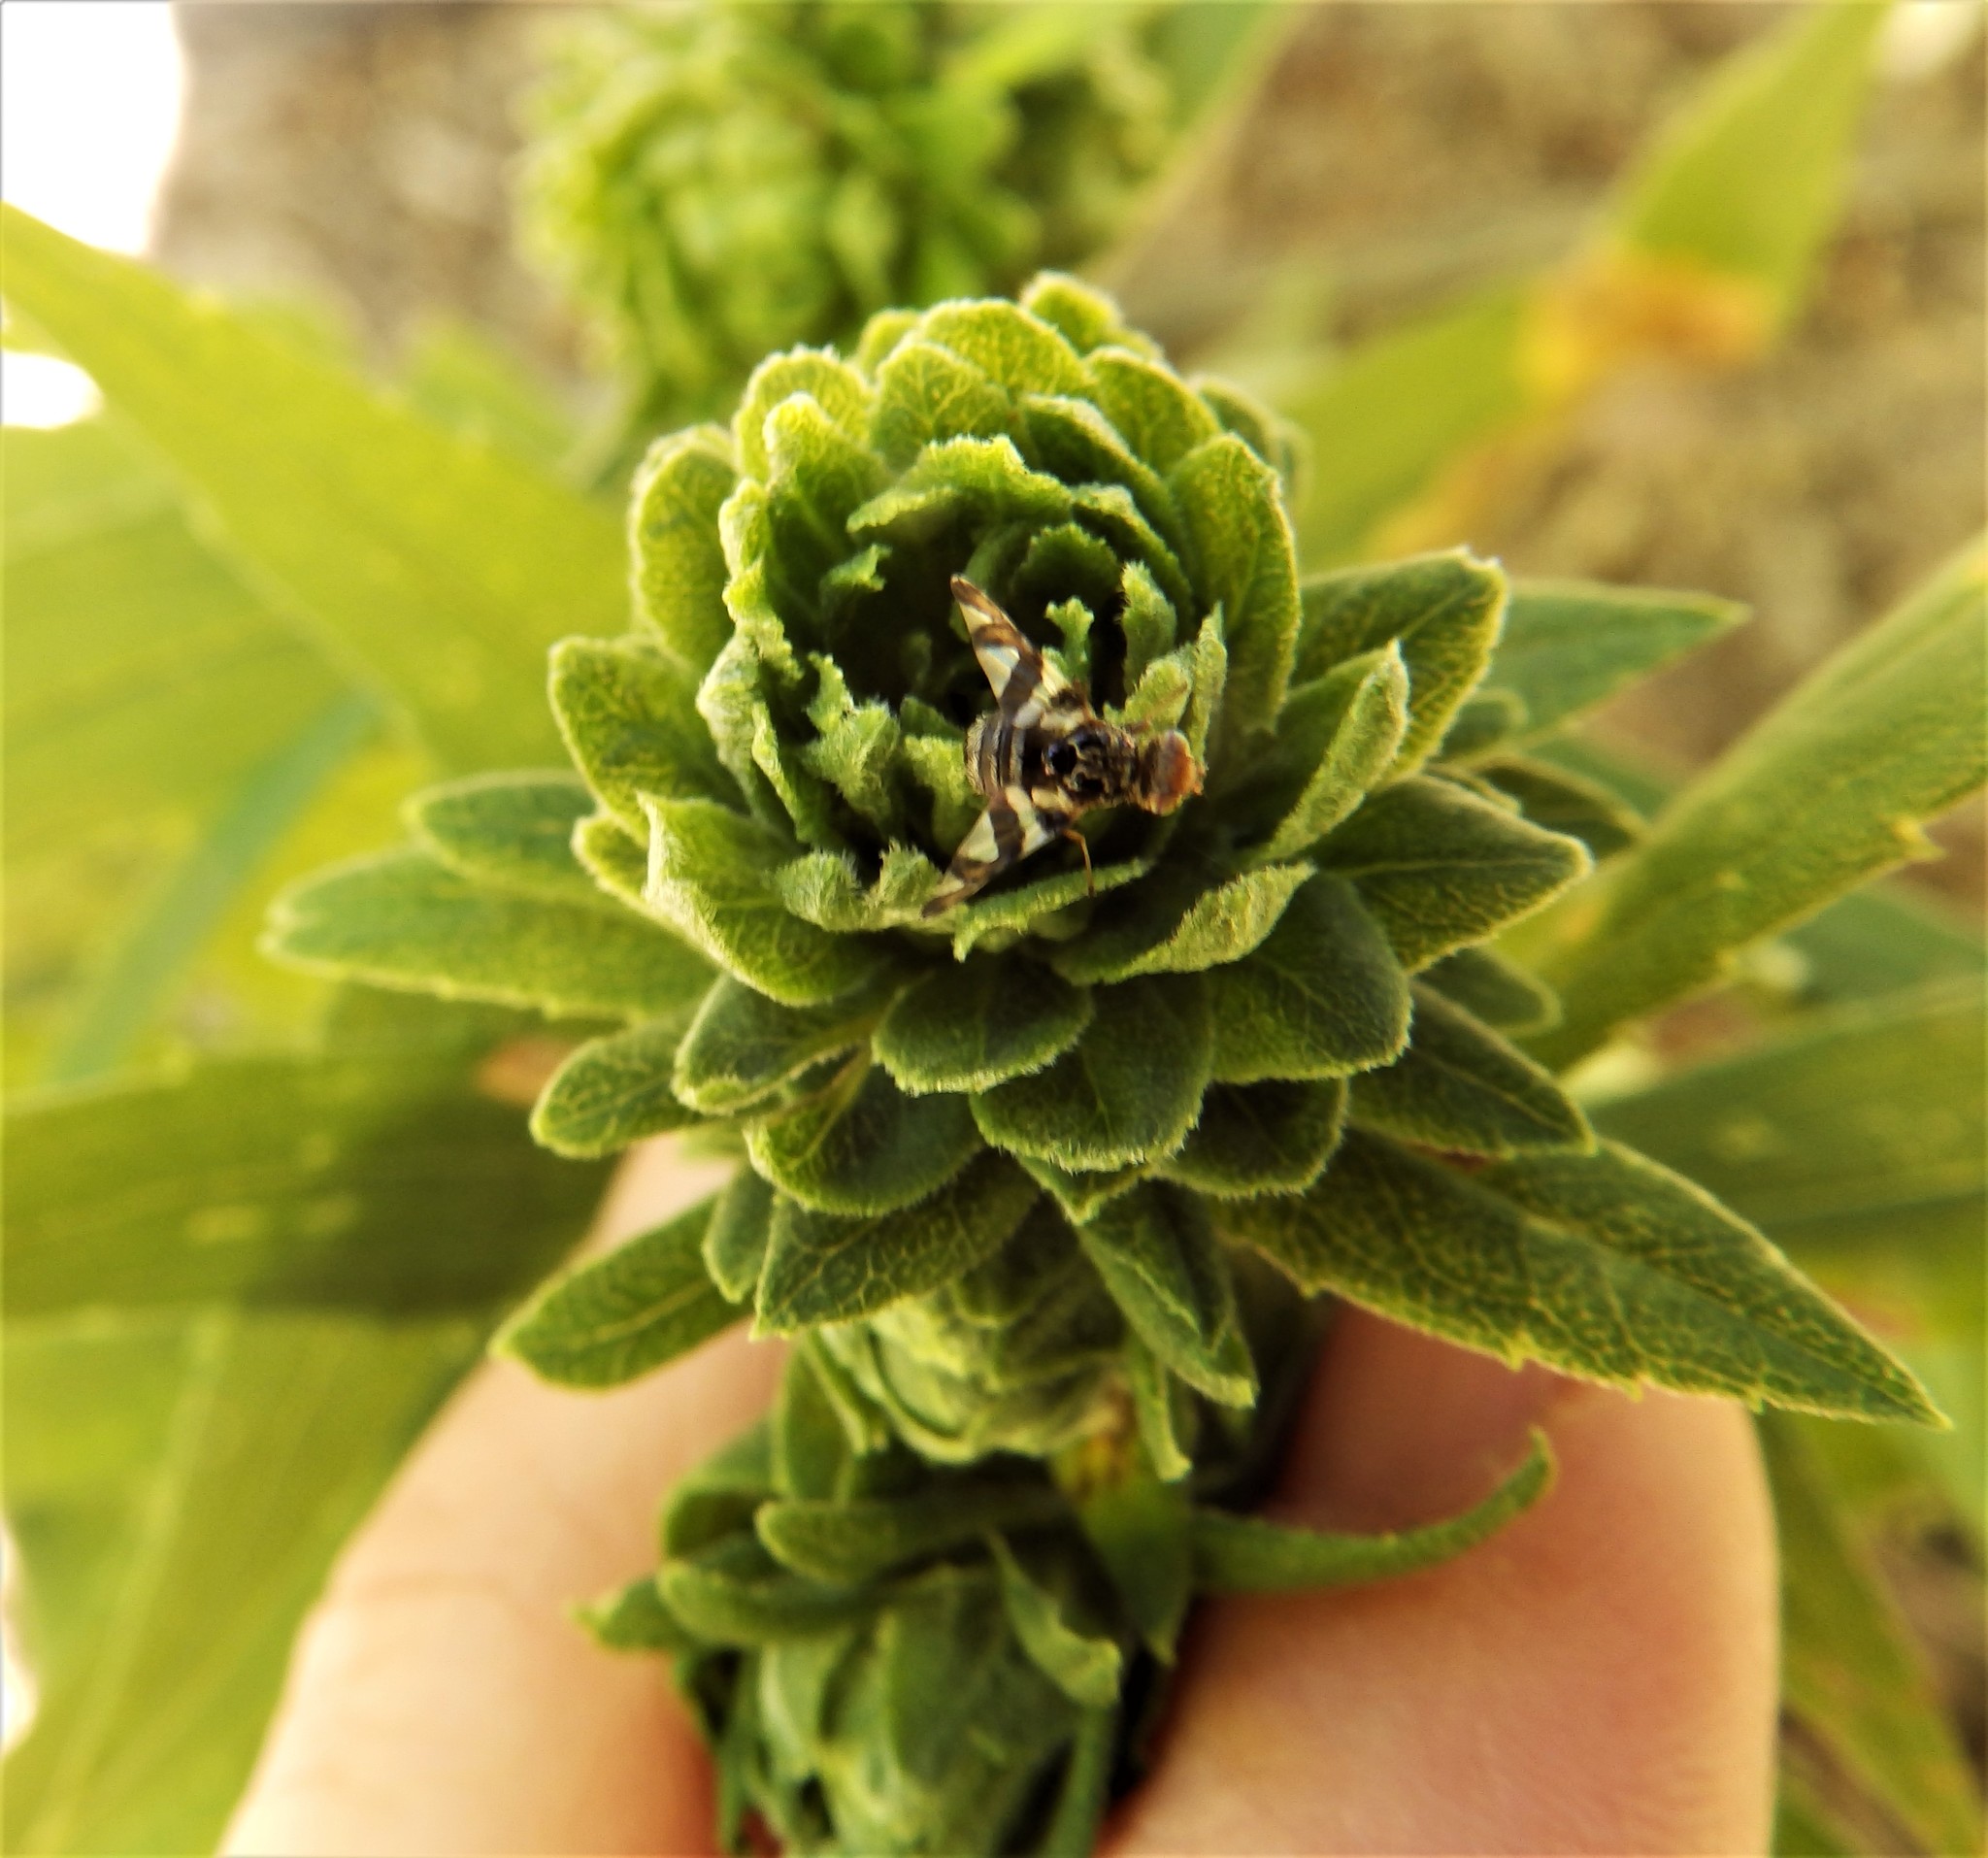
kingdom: Animalia
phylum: Arthropoda
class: Insecta
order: Diptera
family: Tephritidae
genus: Procecidochares
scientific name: Procecidochares atra
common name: Goldenrod brussels sprout gall fly
